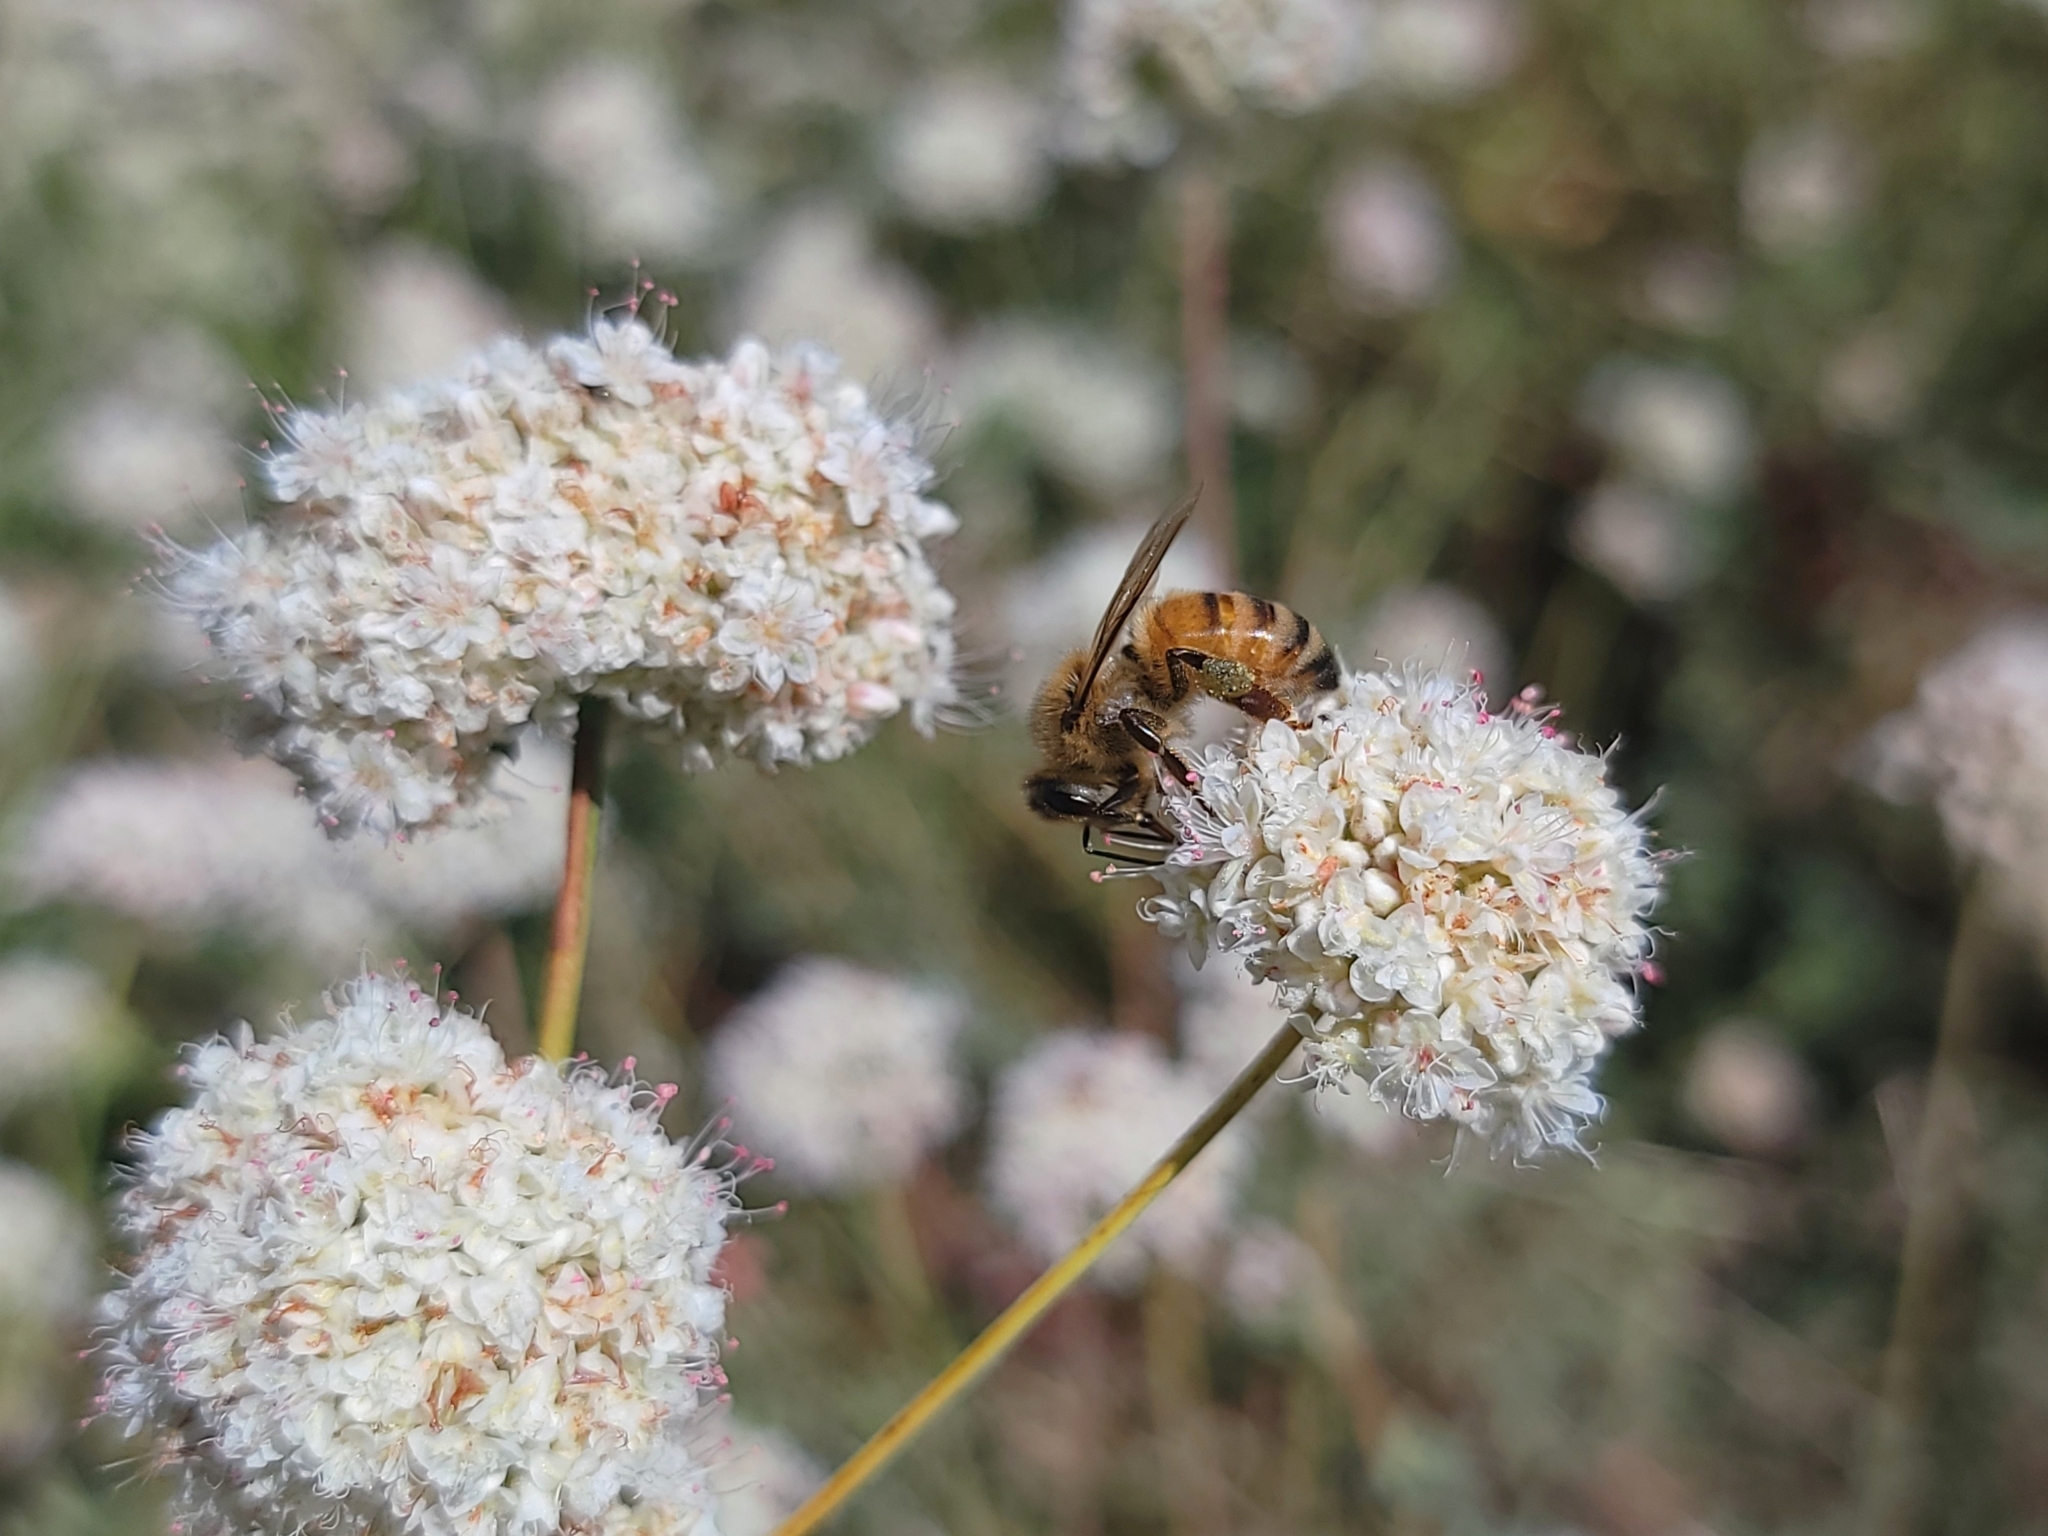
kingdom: Animalia
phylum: Arthropoda
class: Insecta
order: Hymenoptera
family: Apidae
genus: Apis
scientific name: Apis mellifera
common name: Honey bee
